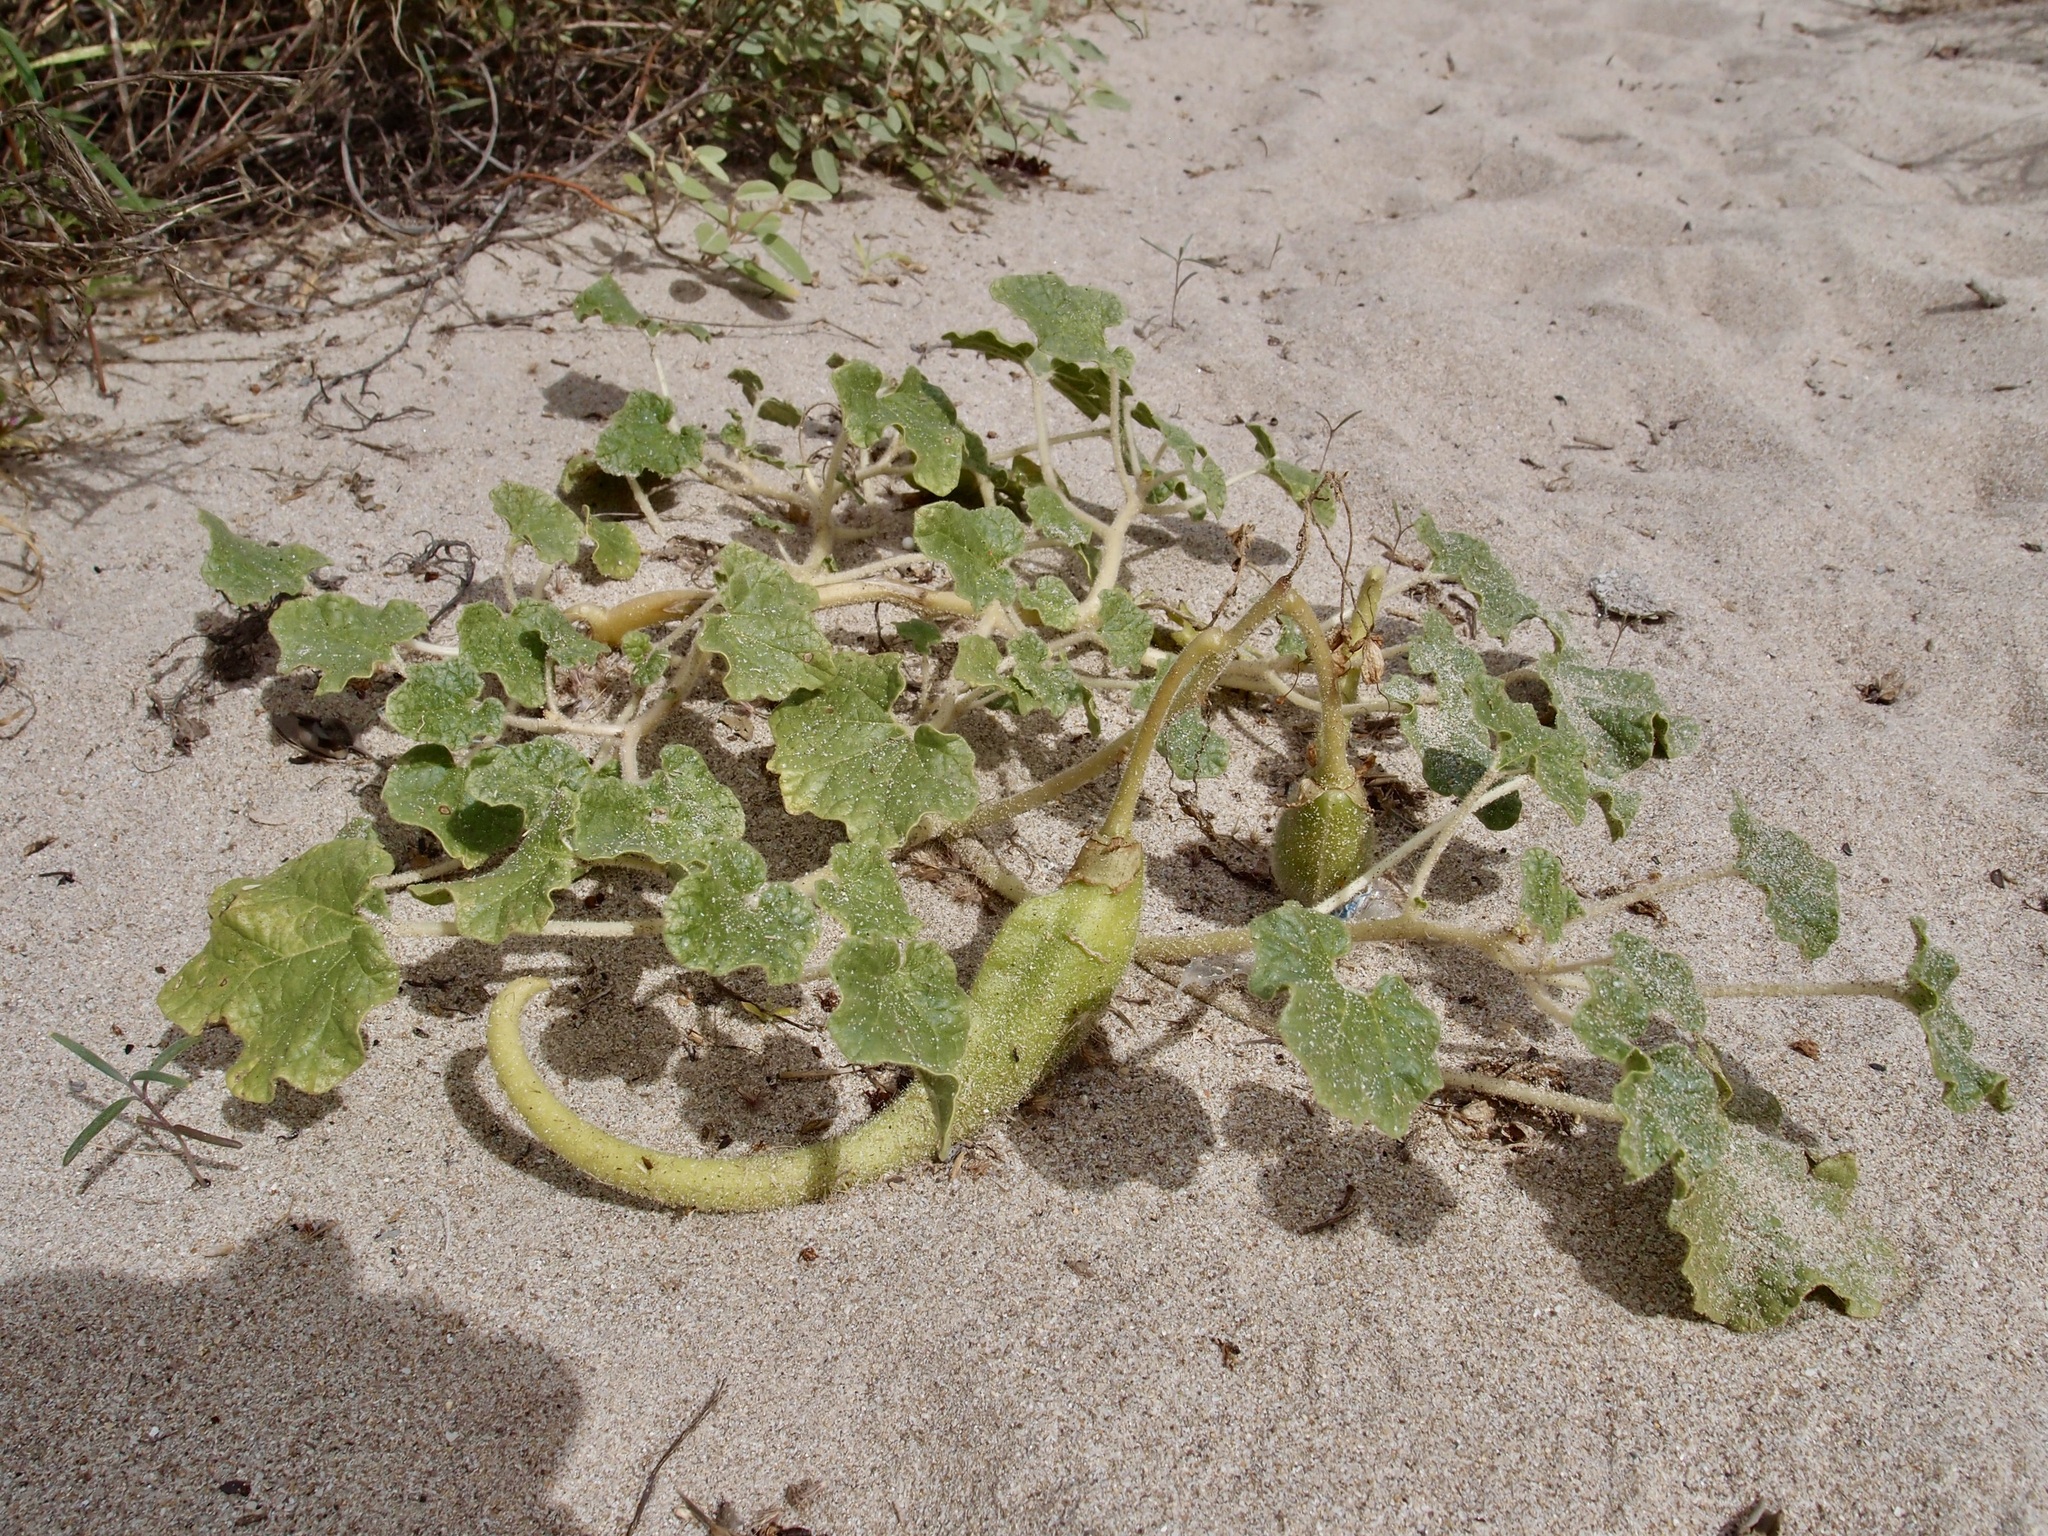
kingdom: Plantae
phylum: Tracheophyta
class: Magnoliopsida
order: Lamiales
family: Martyniaceae
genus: Proboscidea
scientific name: Proboscidea althaeifolia
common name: Desert unicorn-plant
